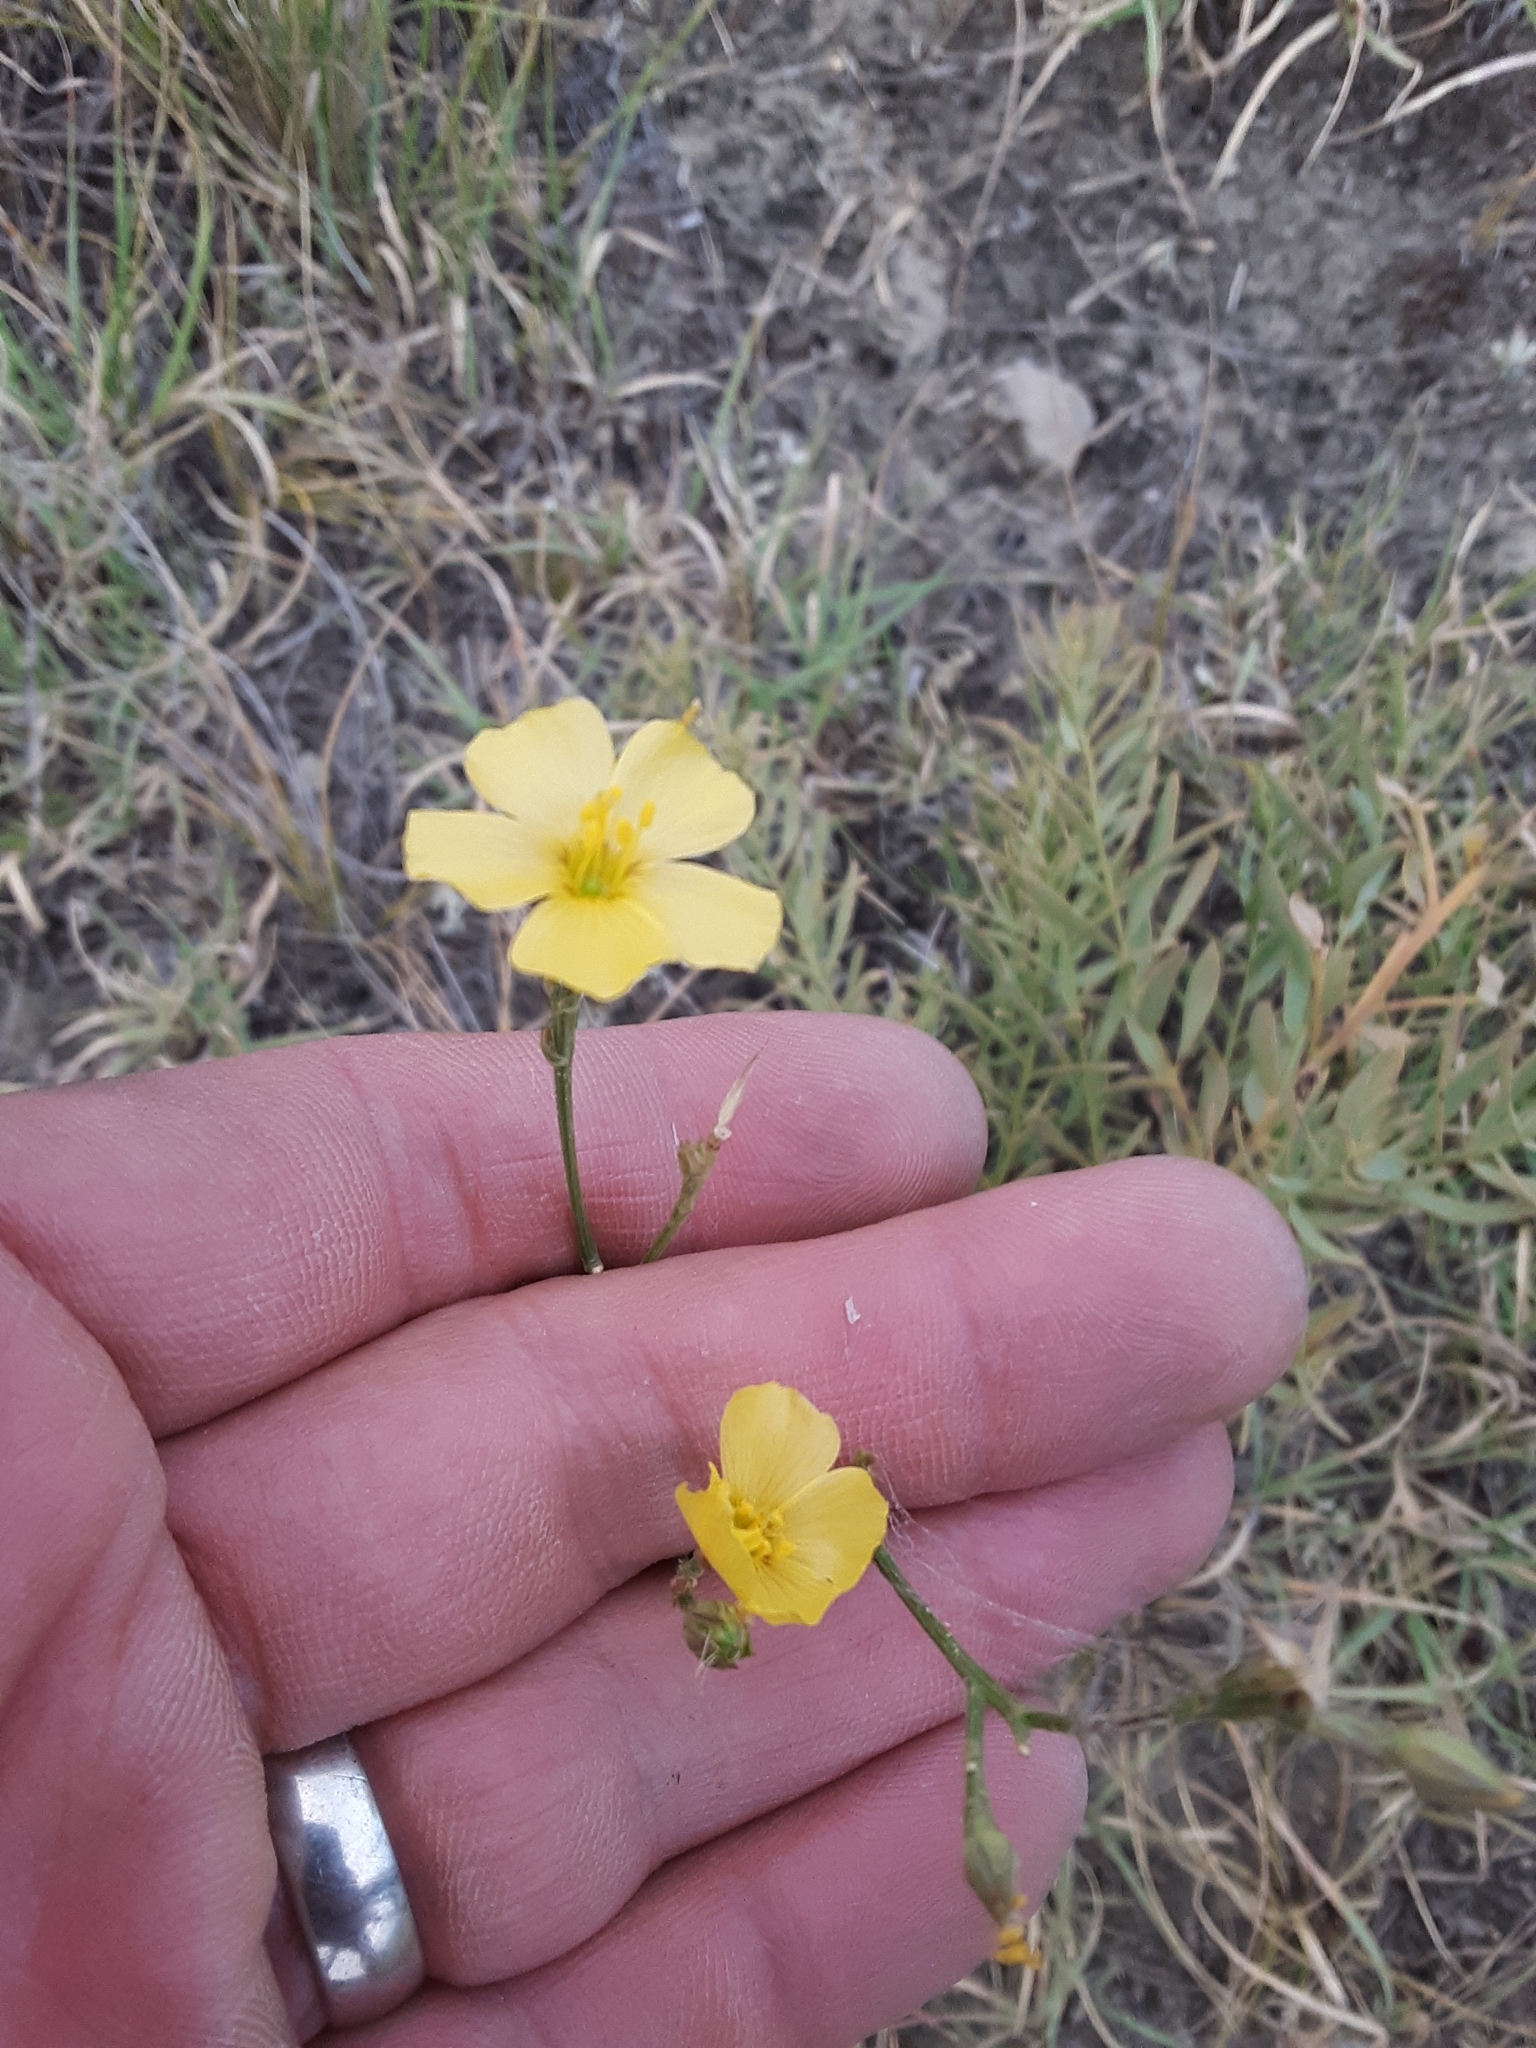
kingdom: Plantae
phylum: Tracheophyta
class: Magnoliopsida
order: Malpighiales
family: Linaceae
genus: Linum
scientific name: Linum rigidum
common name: Stiff-stem flax
